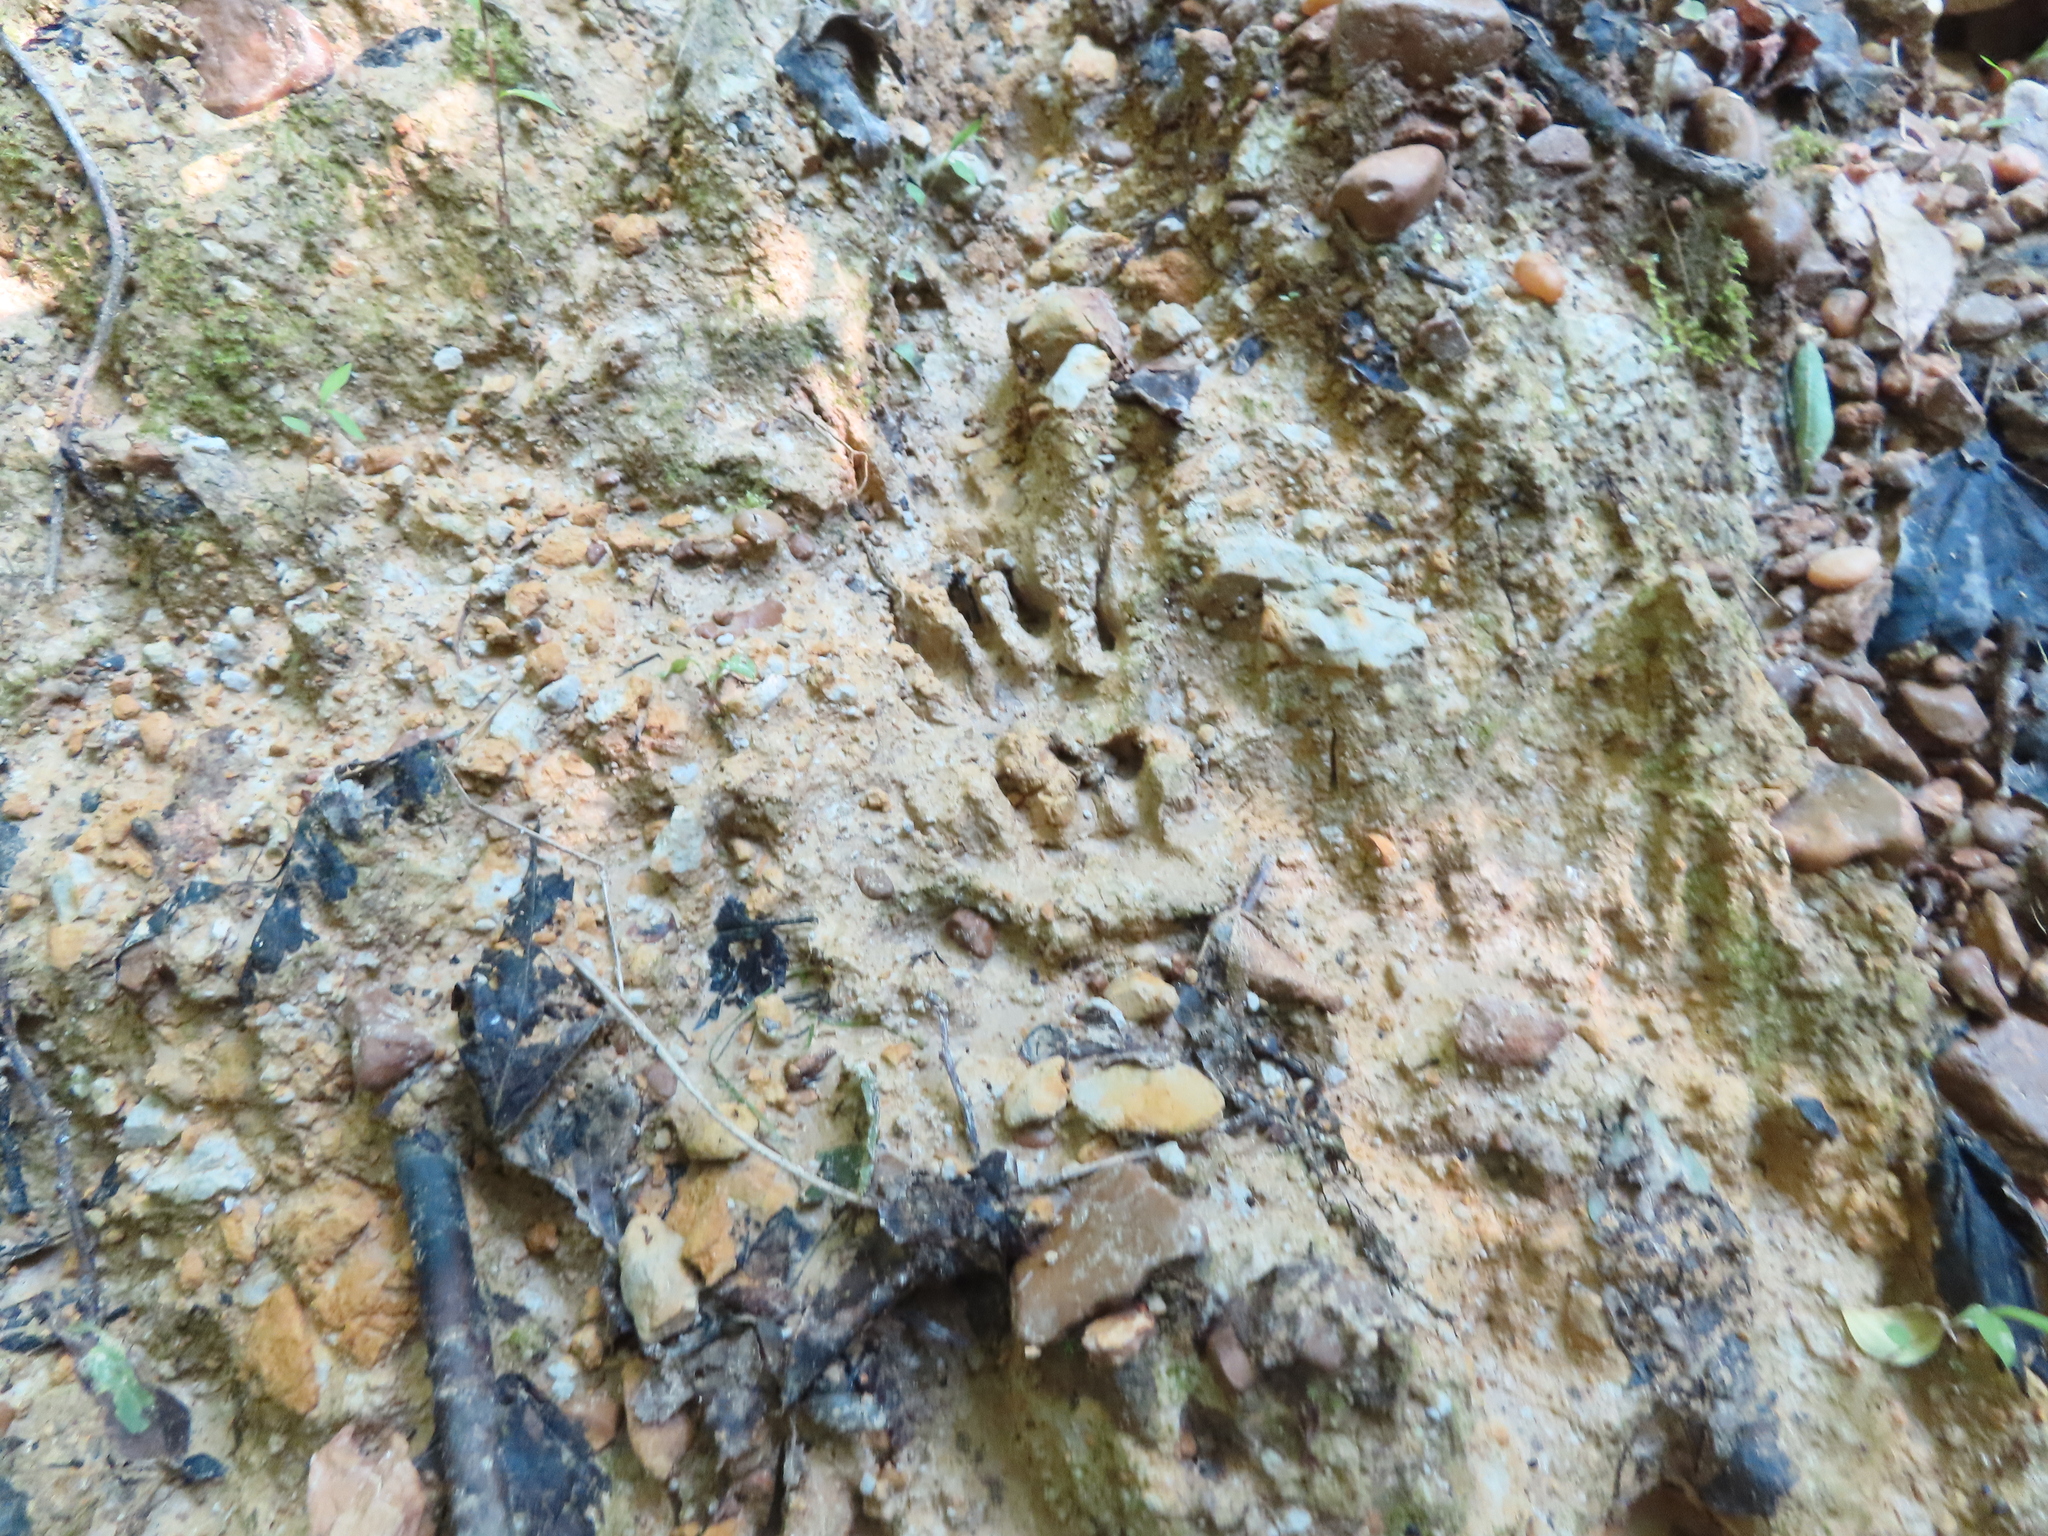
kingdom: Animalia
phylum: Chordata
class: Mammalia
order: Carnivora
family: Procyonidae
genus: Procyon
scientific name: Procyon lotor
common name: Raccoon
